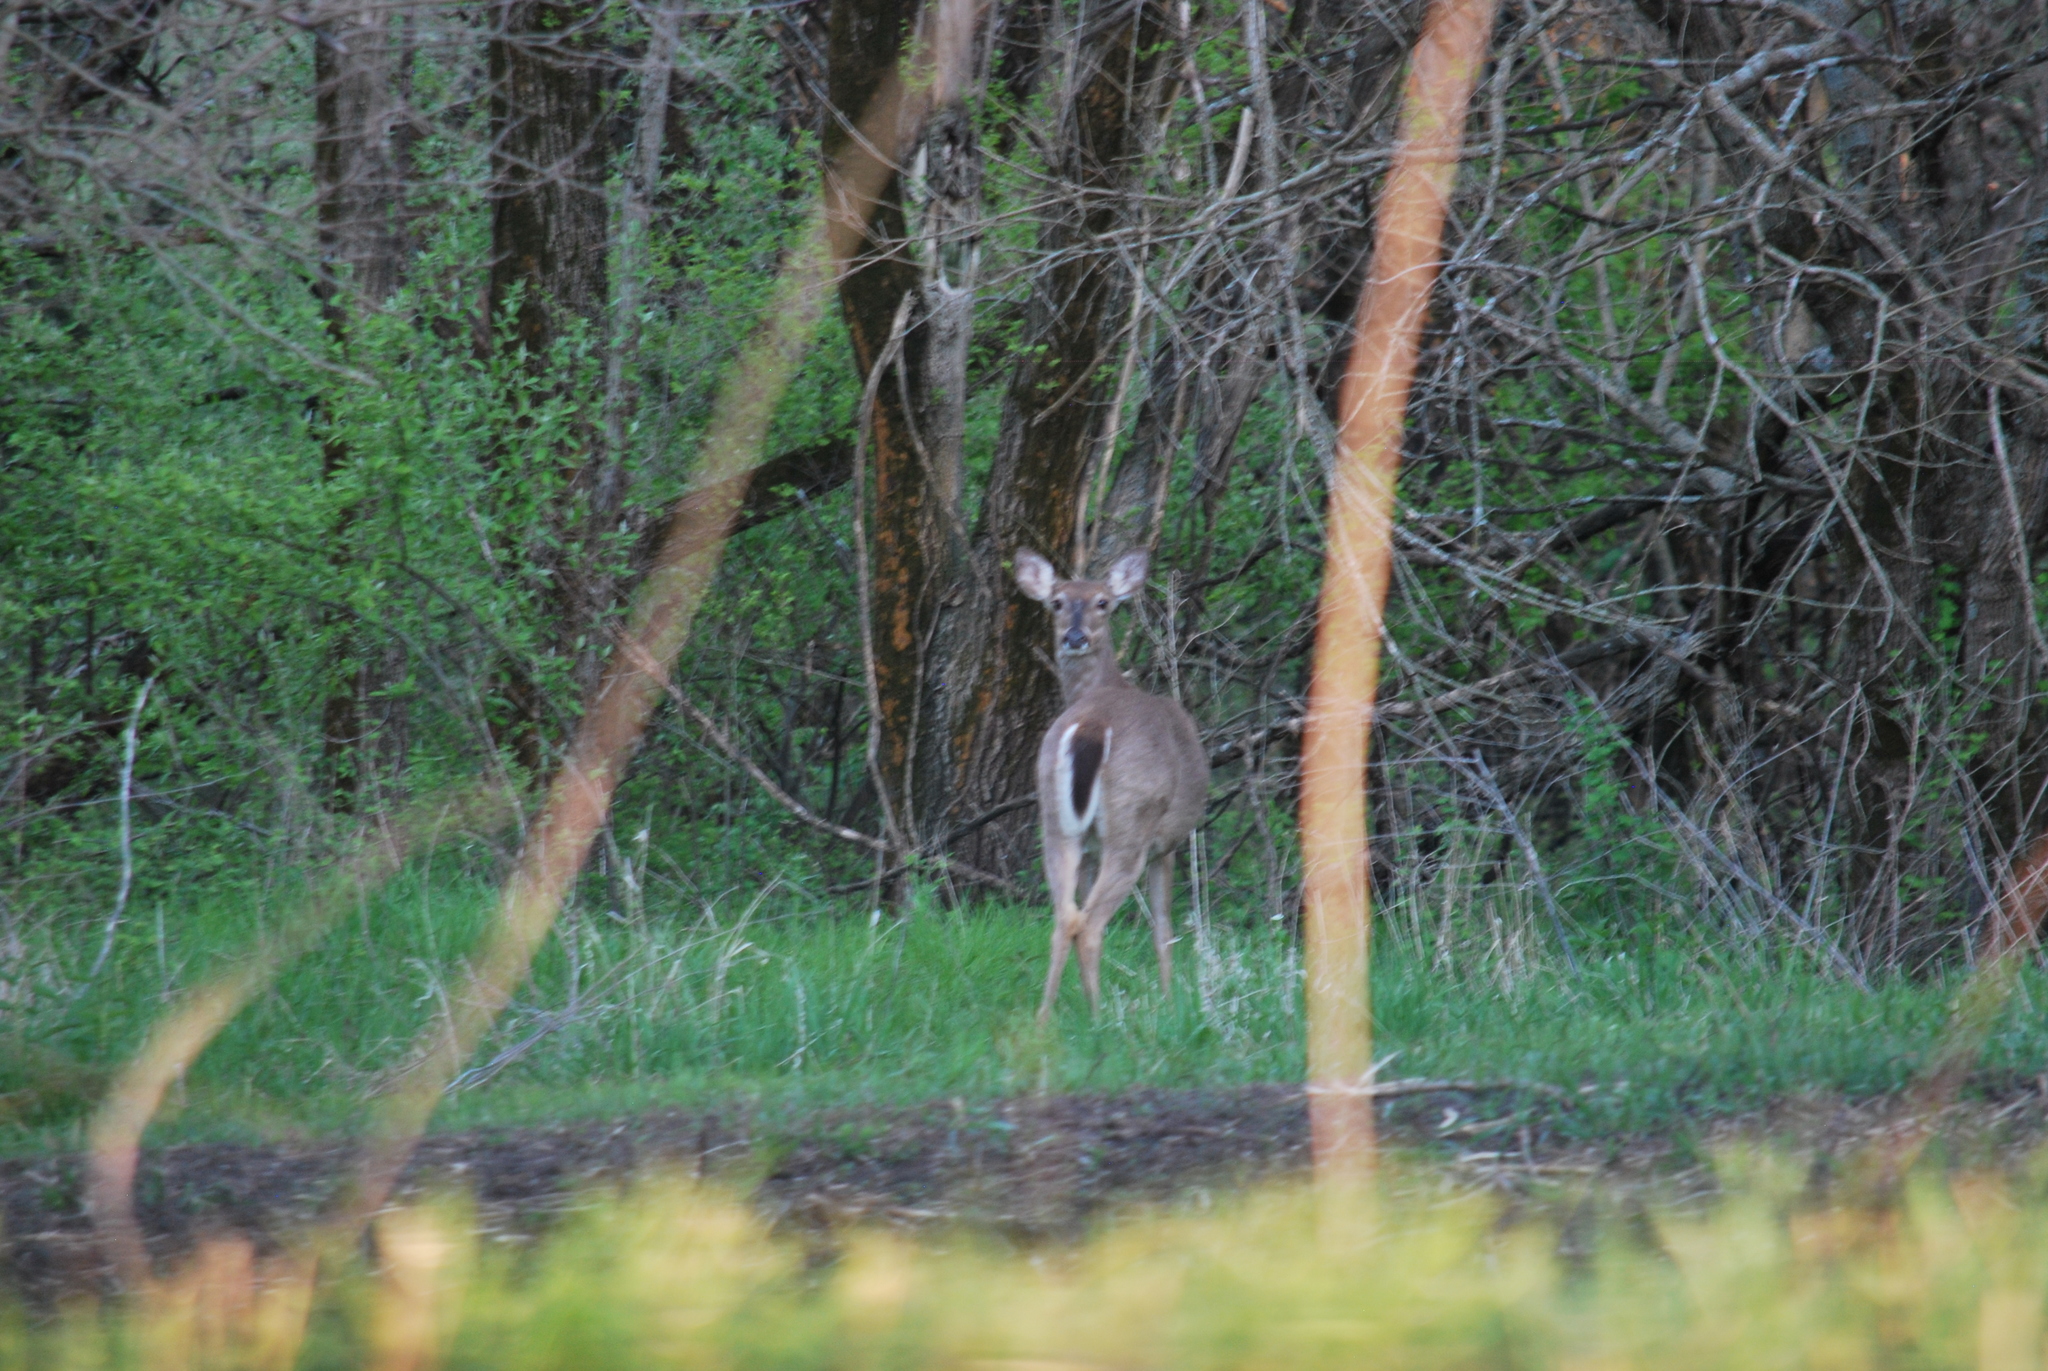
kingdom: Animalia
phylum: Chordata
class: Mammalia
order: Artiodactyla
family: Cervidae
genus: Odocoileus
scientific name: Odocoileus virginianus
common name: White-tailed deer
